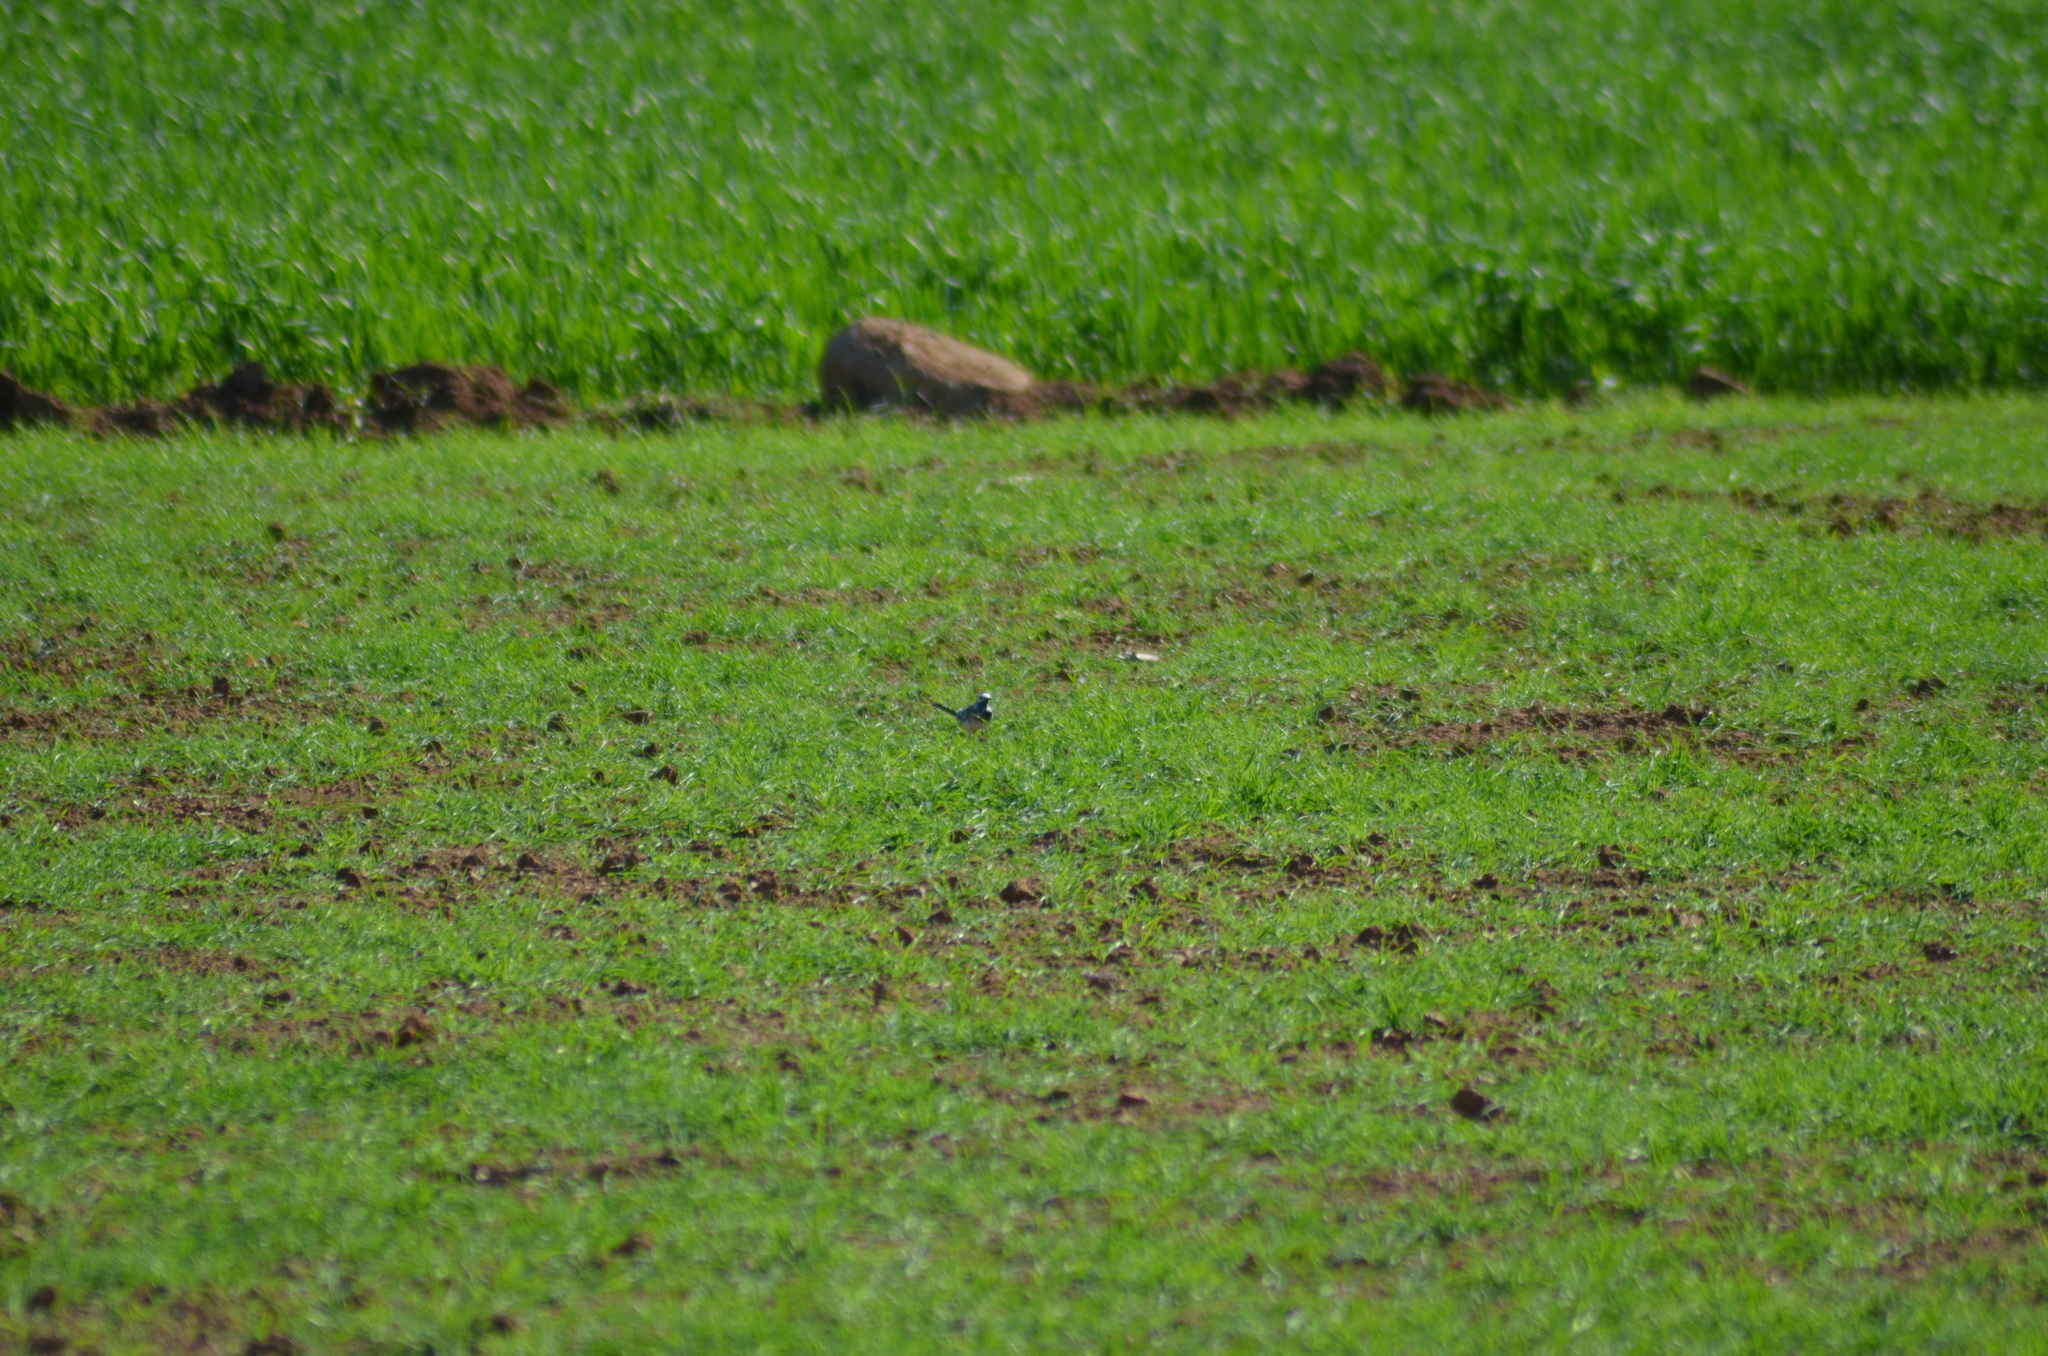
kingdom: Animalia
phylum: Chordata
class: Aves
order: Passeriformes
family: Motacillidae
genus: Motacilla
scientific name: Motacilla alba
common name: White wagtail
